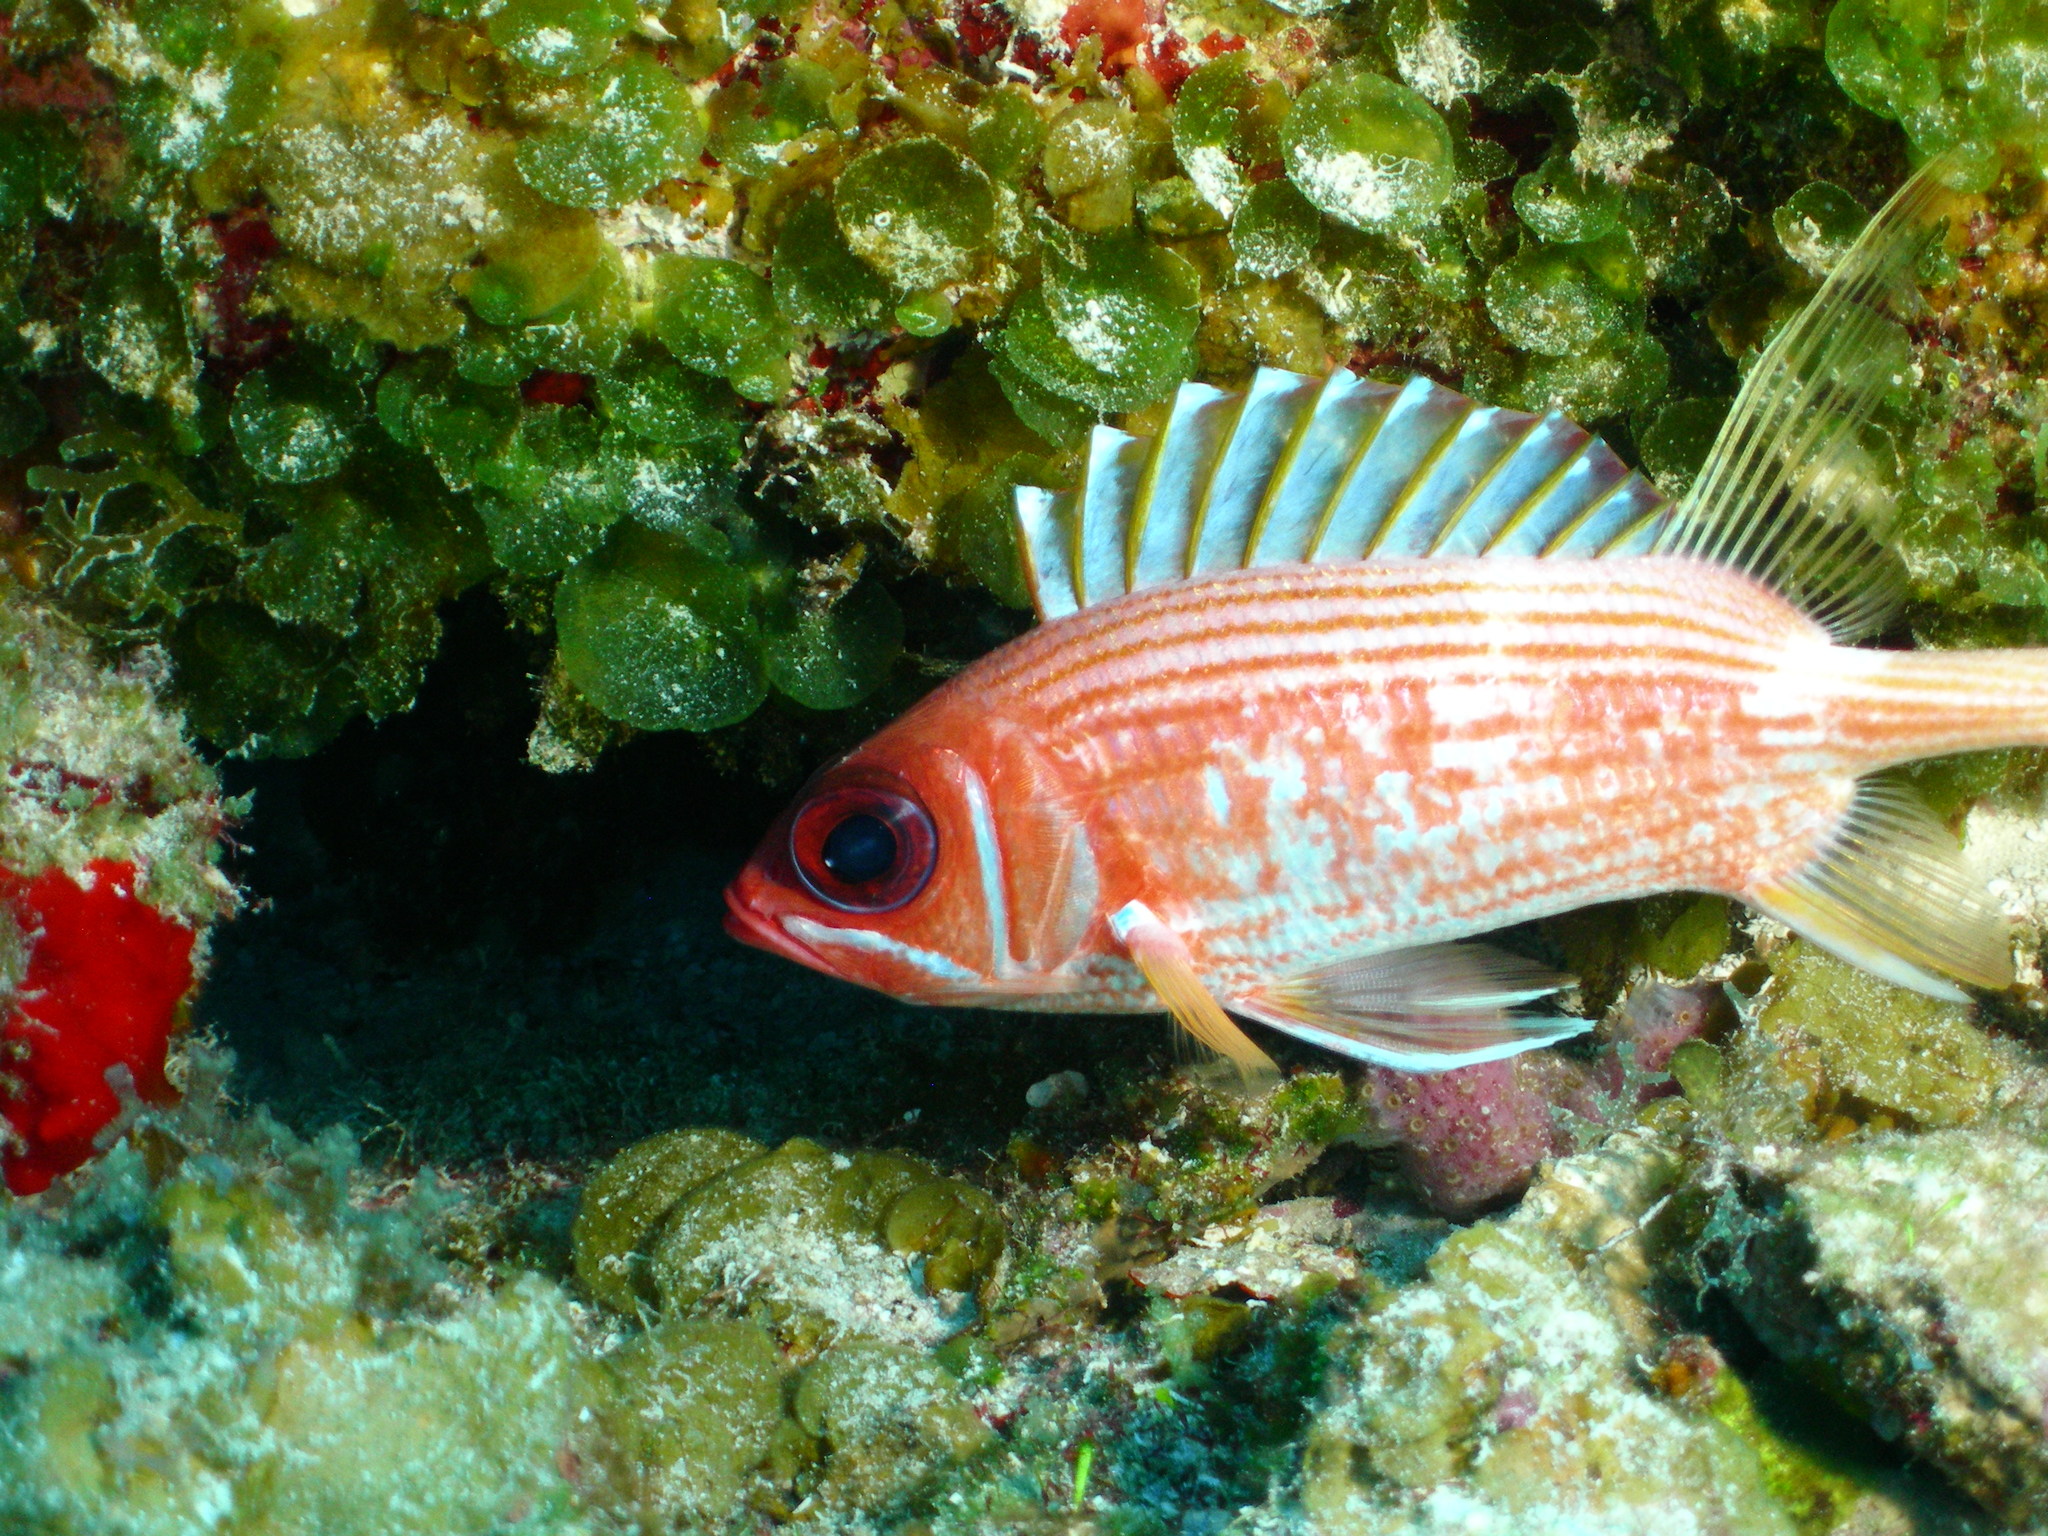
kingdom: Animalia
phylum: Chordata
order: Beryciformes
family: Holocentridae
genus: Holocentrus
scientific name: Holocentrus rufus
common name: Longspine squirrelfish
